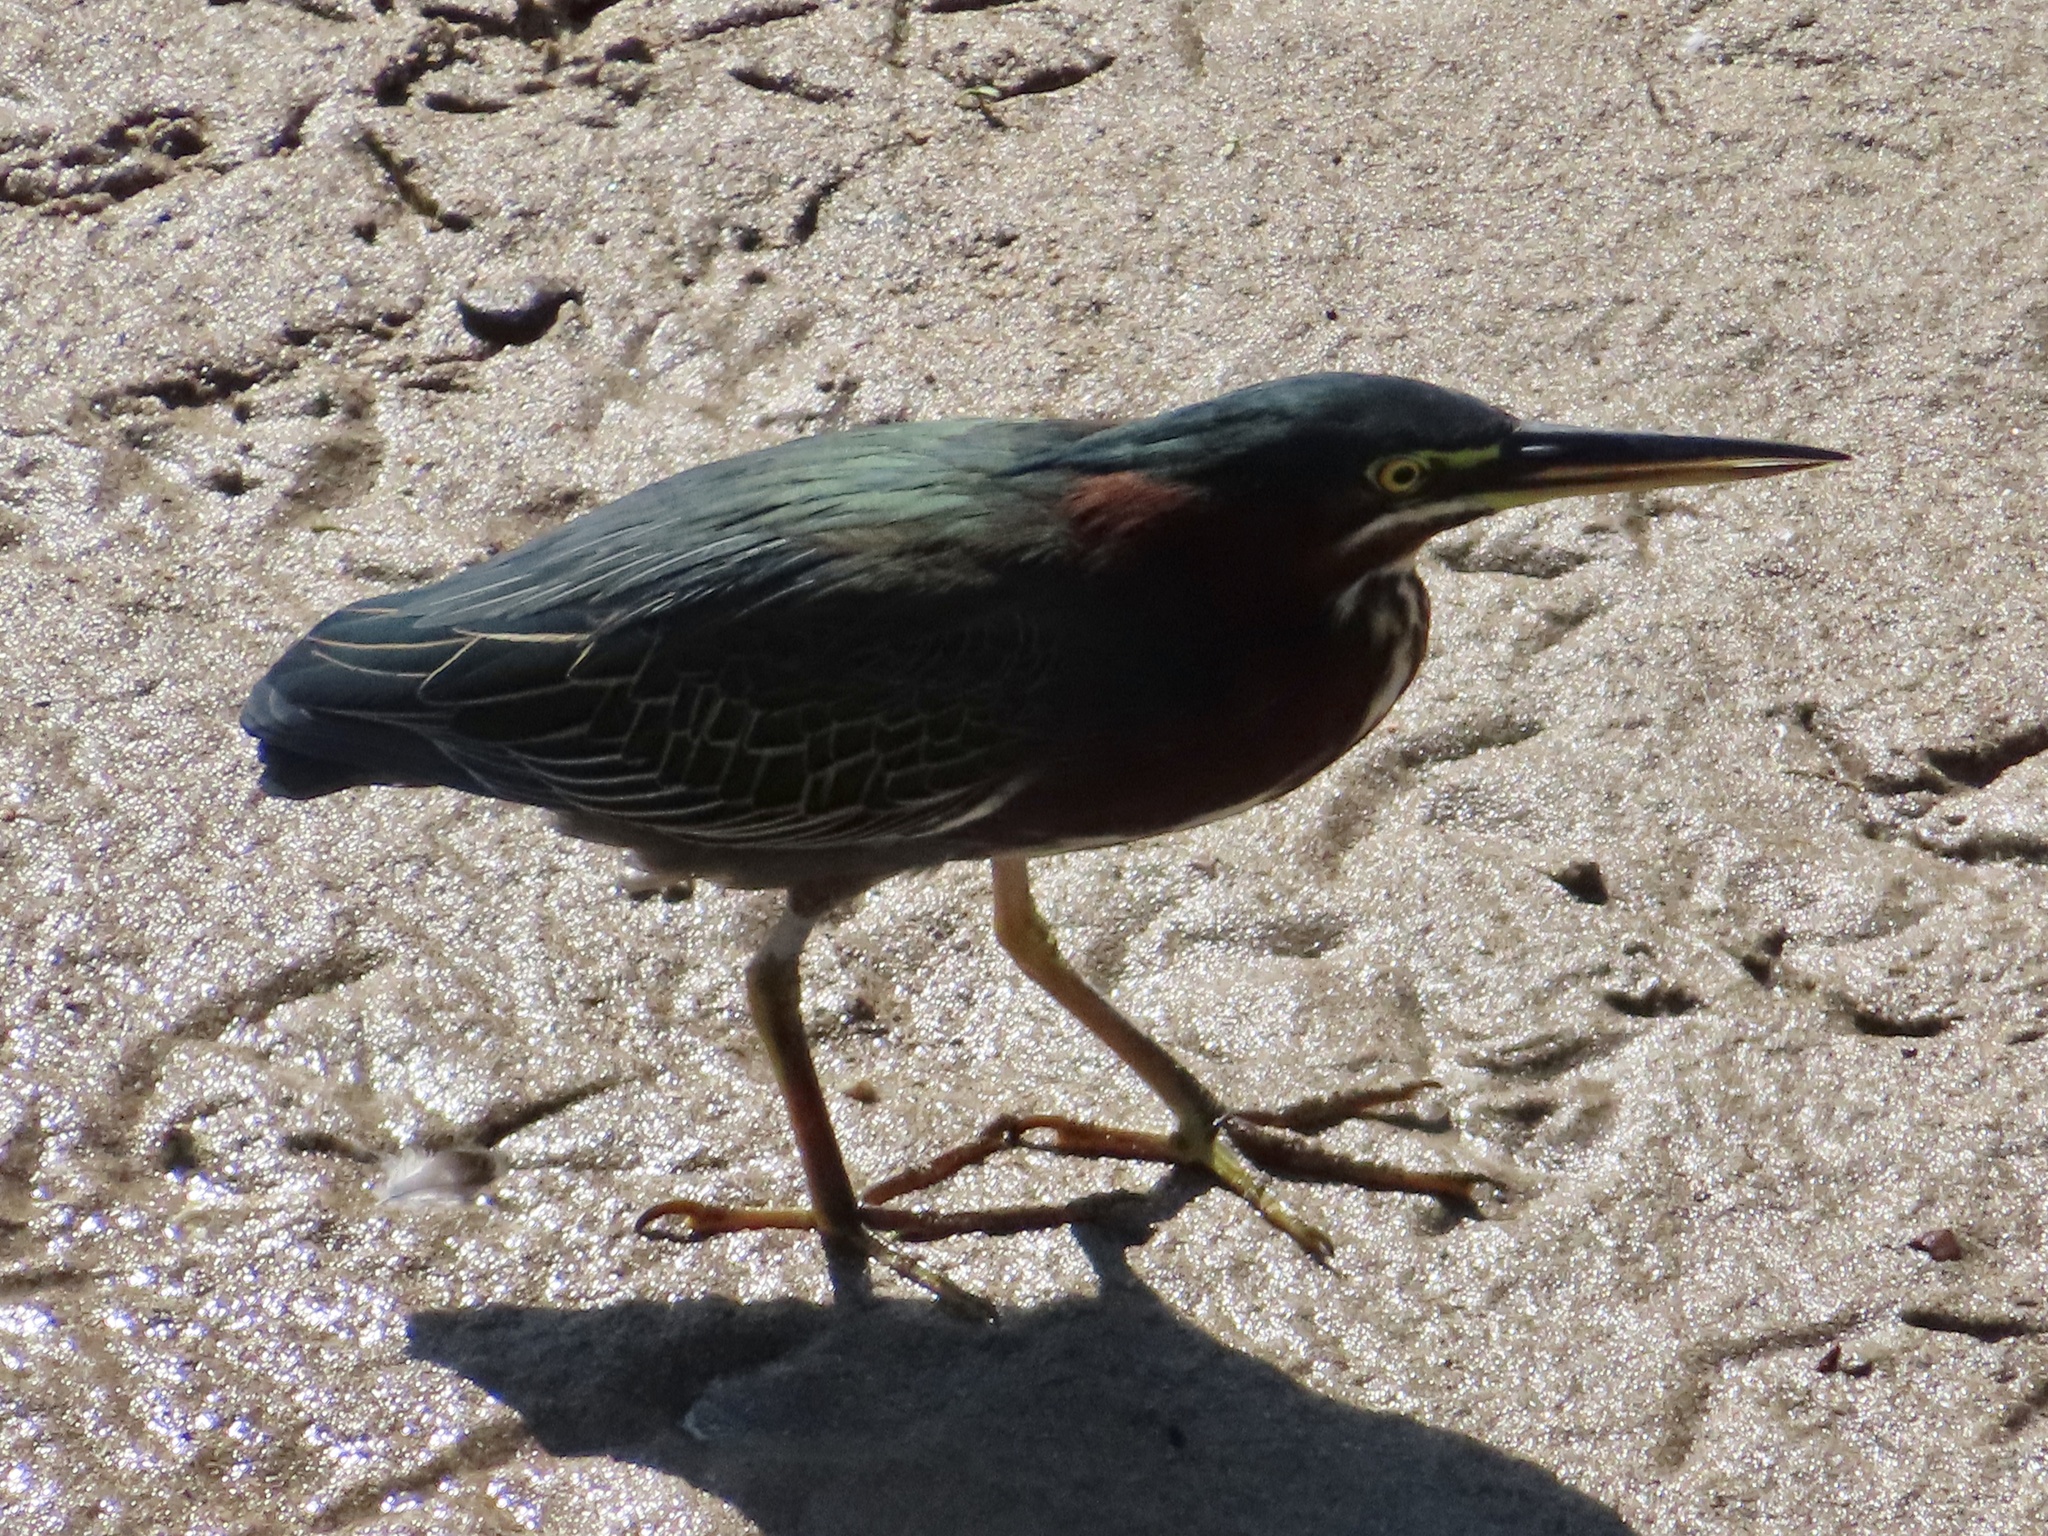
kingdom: Animalia
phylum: Chordata
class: Aves
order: Pelecaniformes
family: Ardeidae
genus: Butorides
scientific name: Butorides virescens
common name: Green heron
